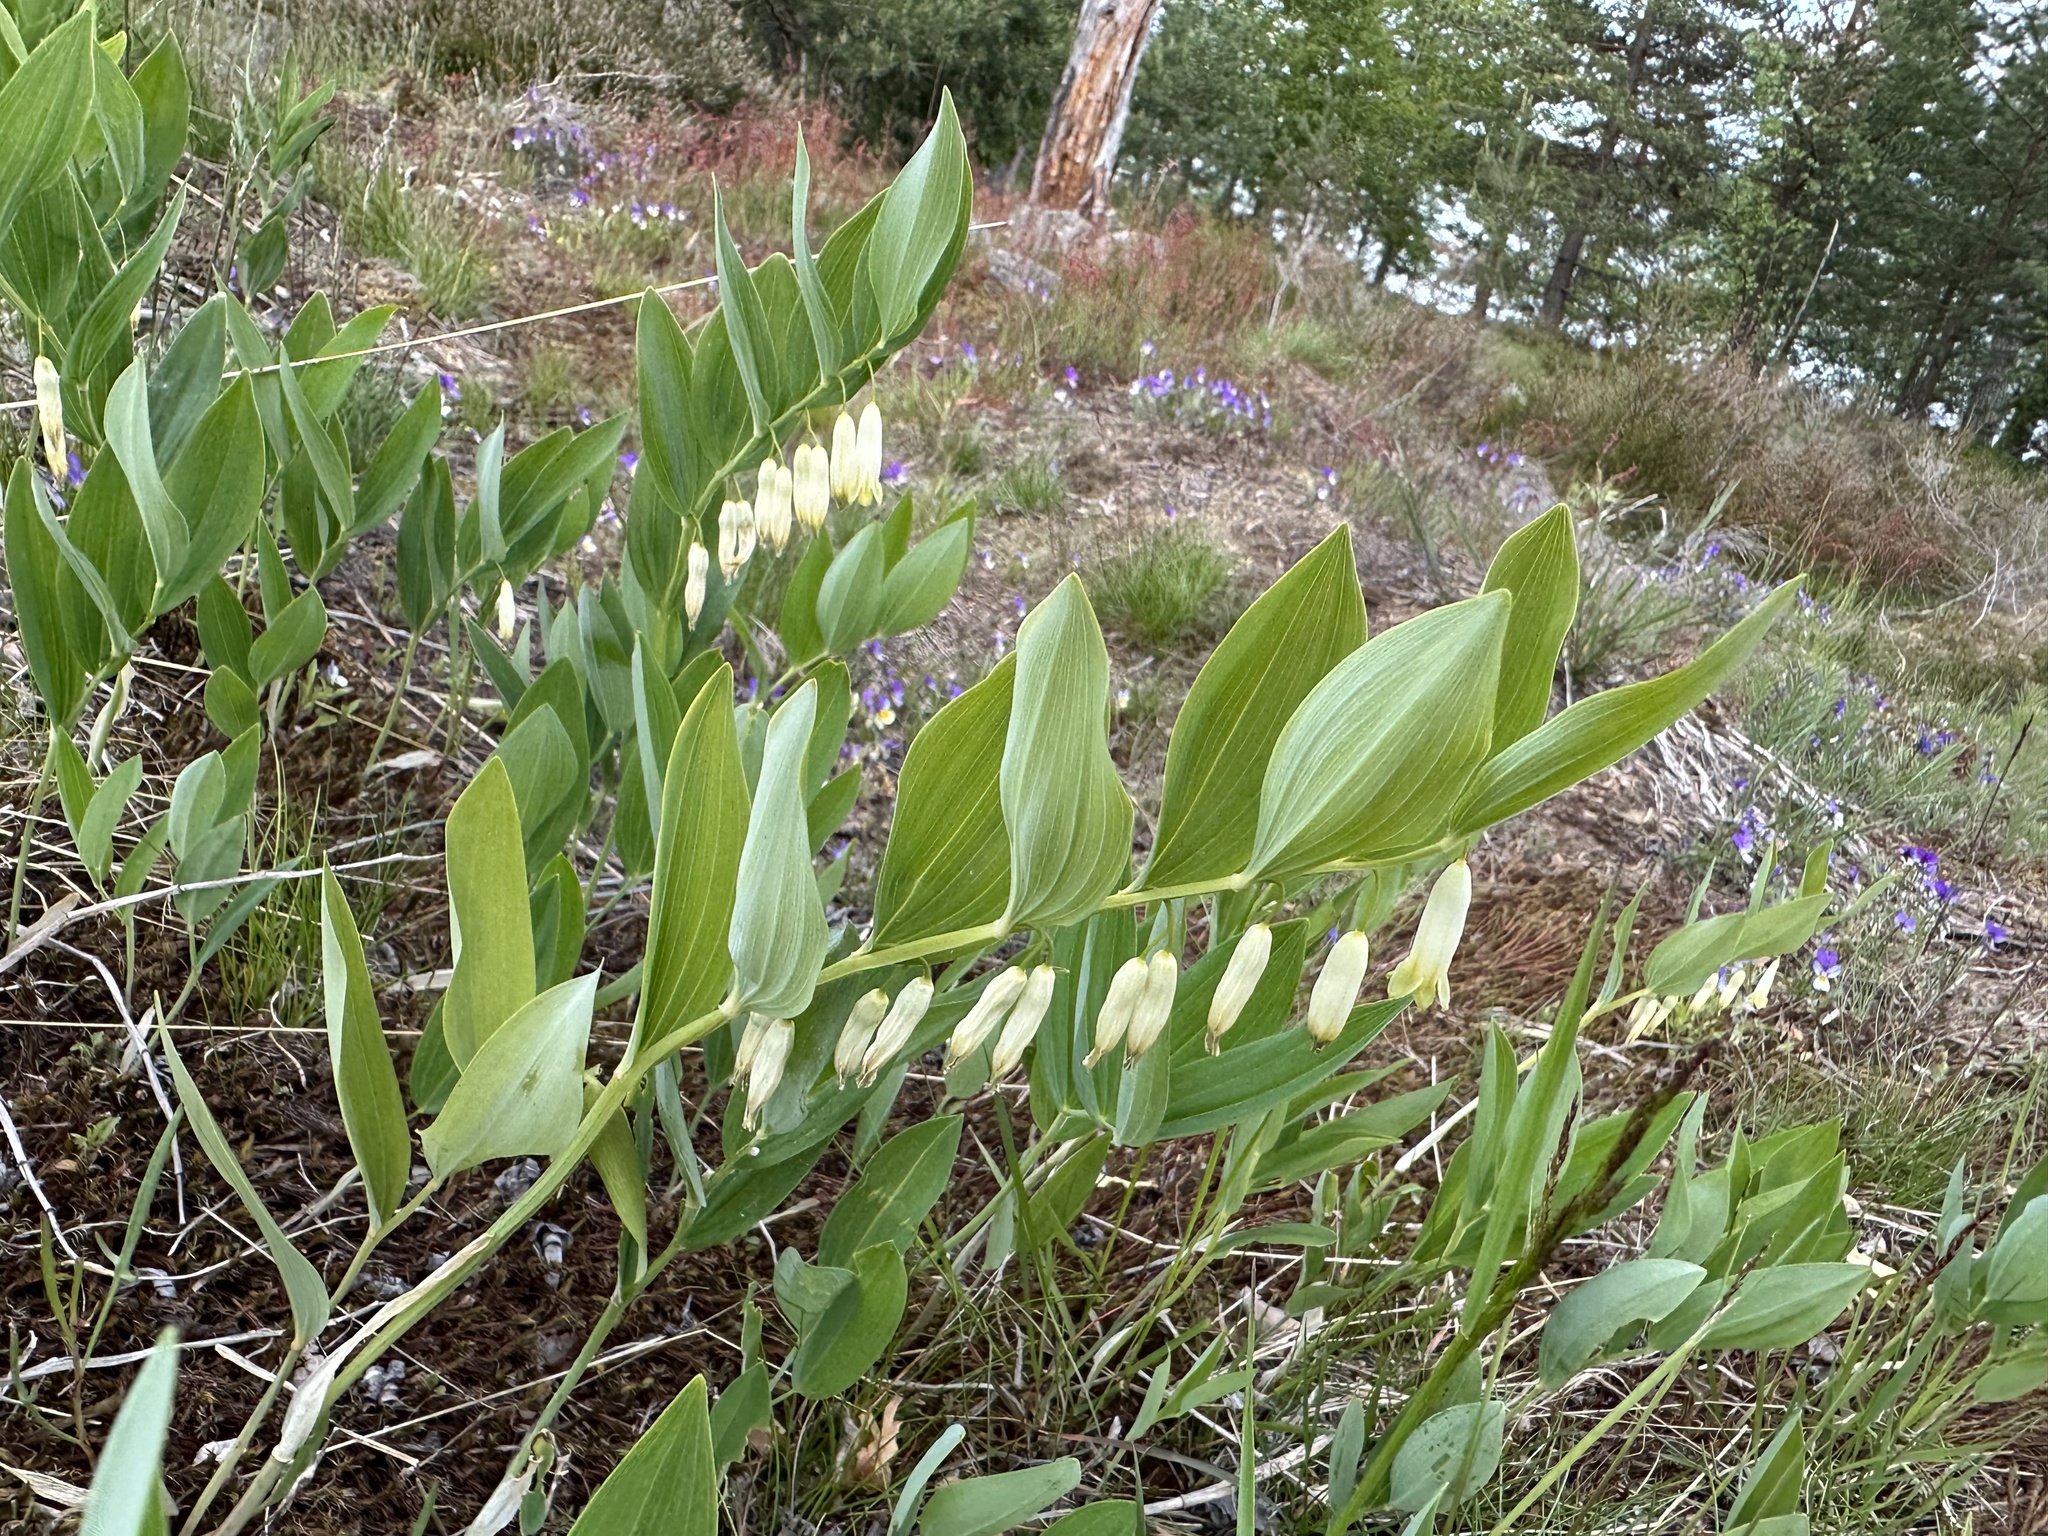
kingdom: Plantae
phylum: Tracheophyta
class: Liliopsida
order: Asparagales
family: Asparagaceae
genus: Polygonatum
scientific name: Polygonatum odoratum
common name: Angular solomon's-seal
